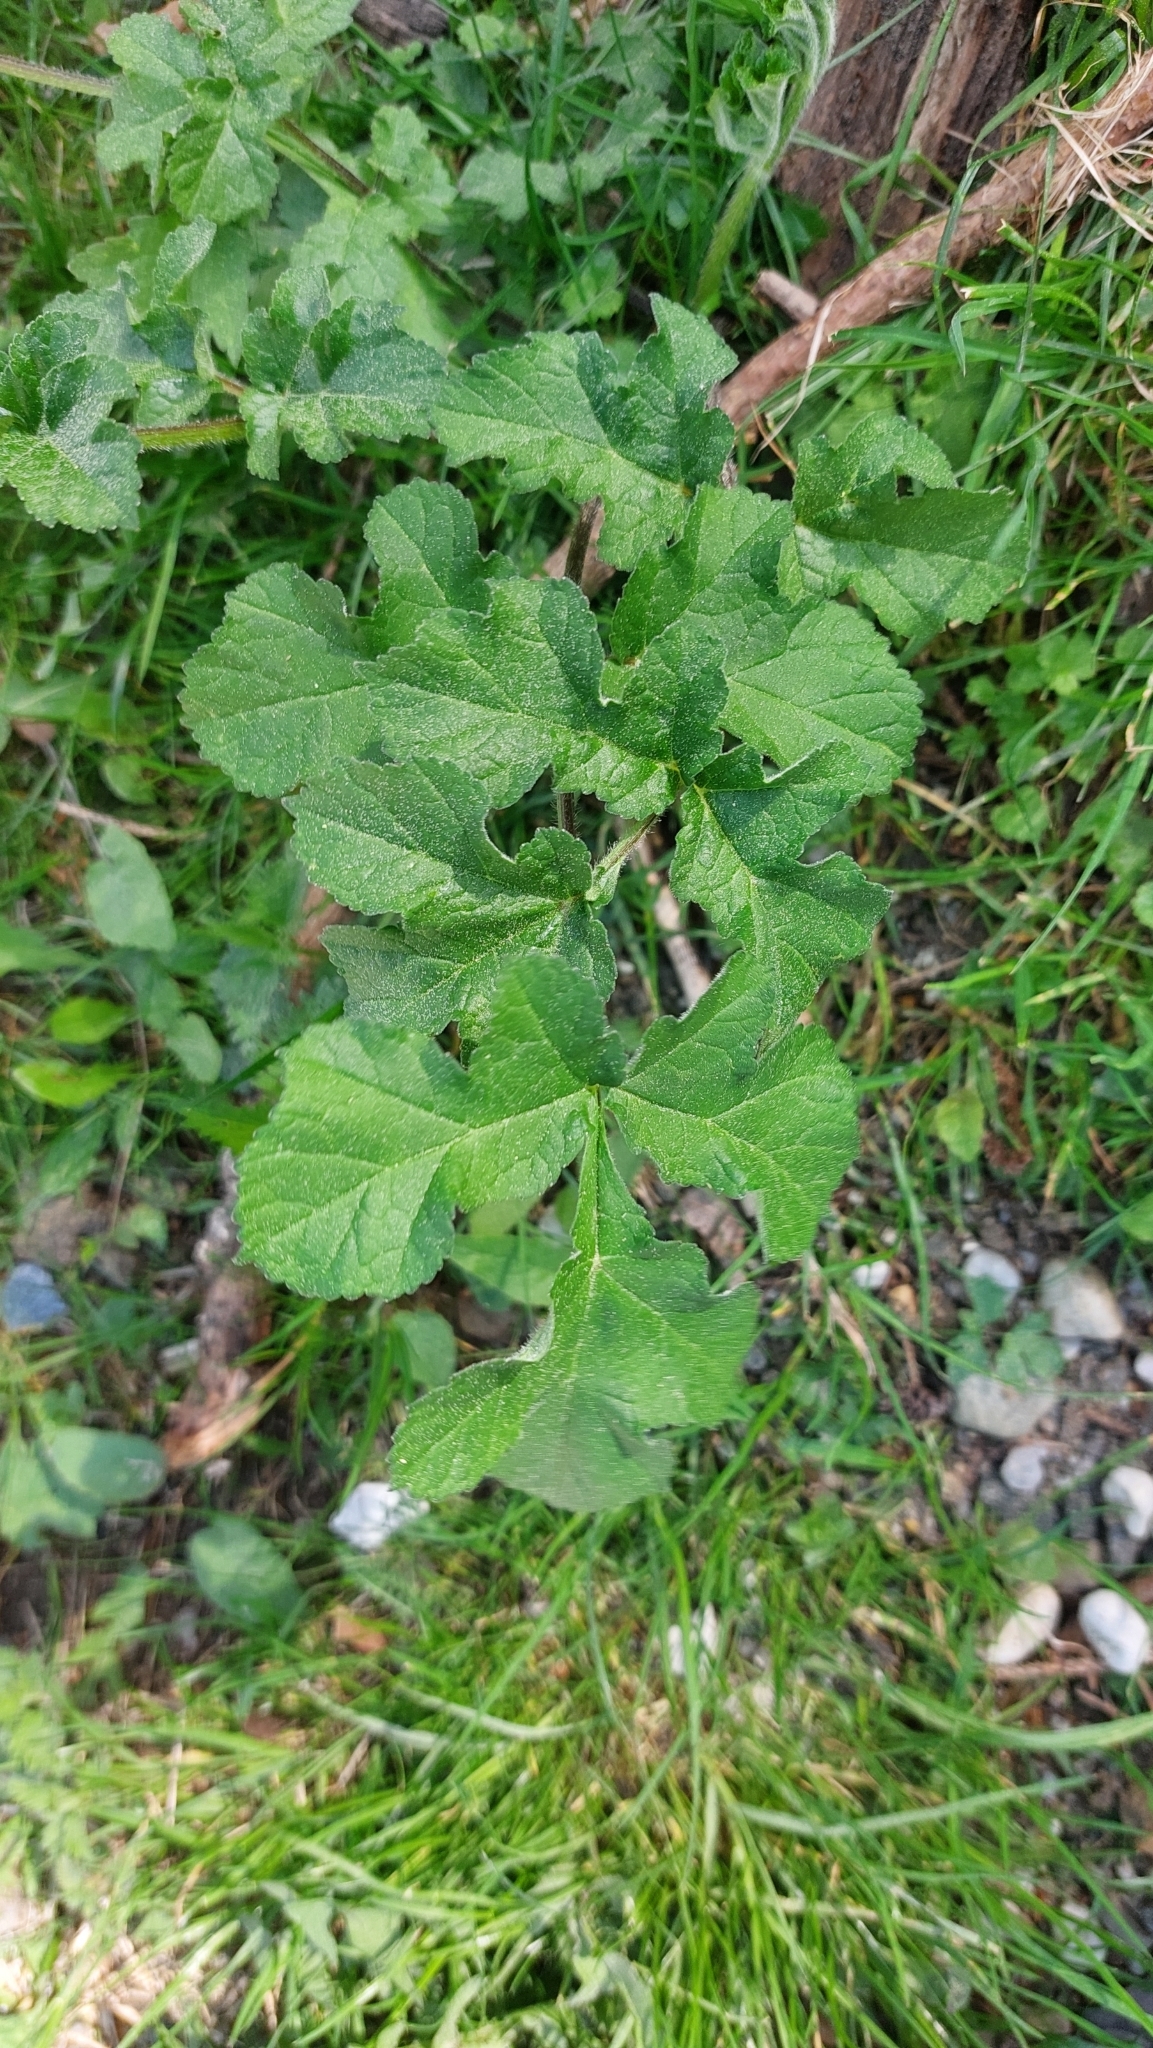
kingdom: Plantae
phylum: Tracheophyta
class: Magnoliopsida
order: Apiales
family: Apiaceae
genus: Heracleum
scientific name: Heracleum sphondylium
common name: Hogweed
